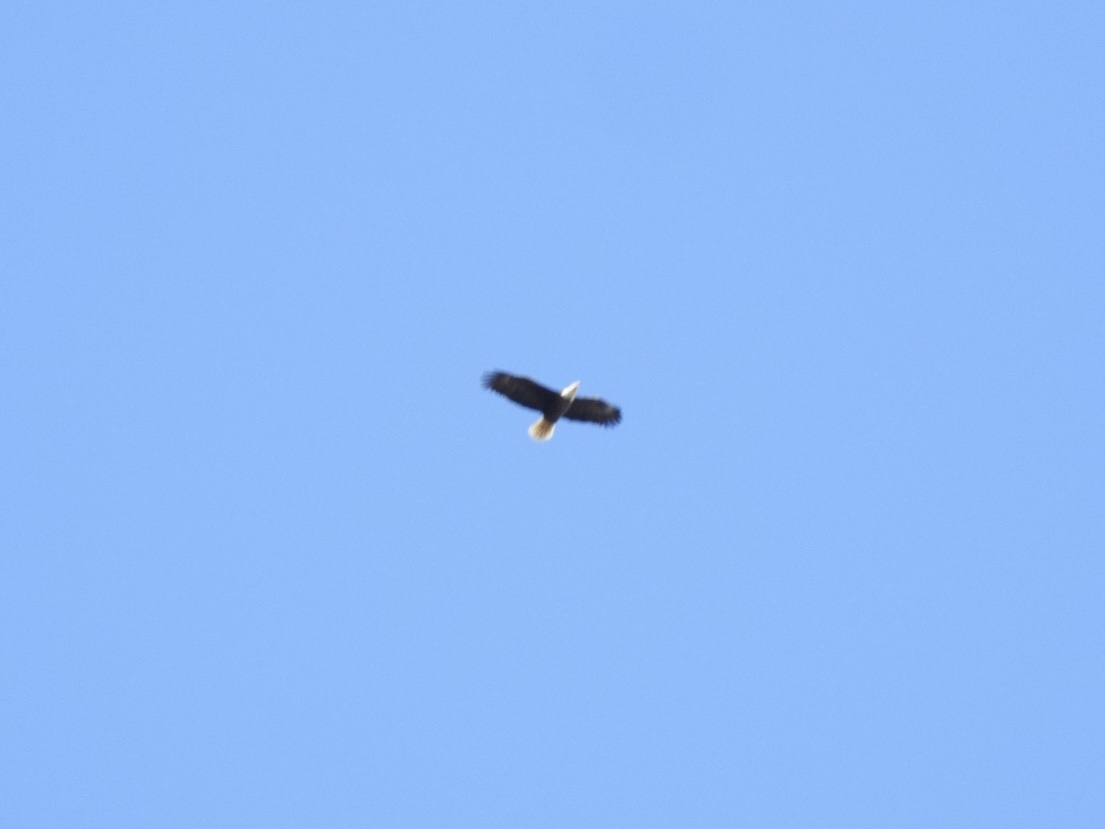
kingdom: Animalia
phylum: Chordata
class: Aves
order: Accipitriformes
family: Accipitridae
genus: Haliaeetus
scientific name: Haliaeetus leucocephalus
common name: Bald eagle
